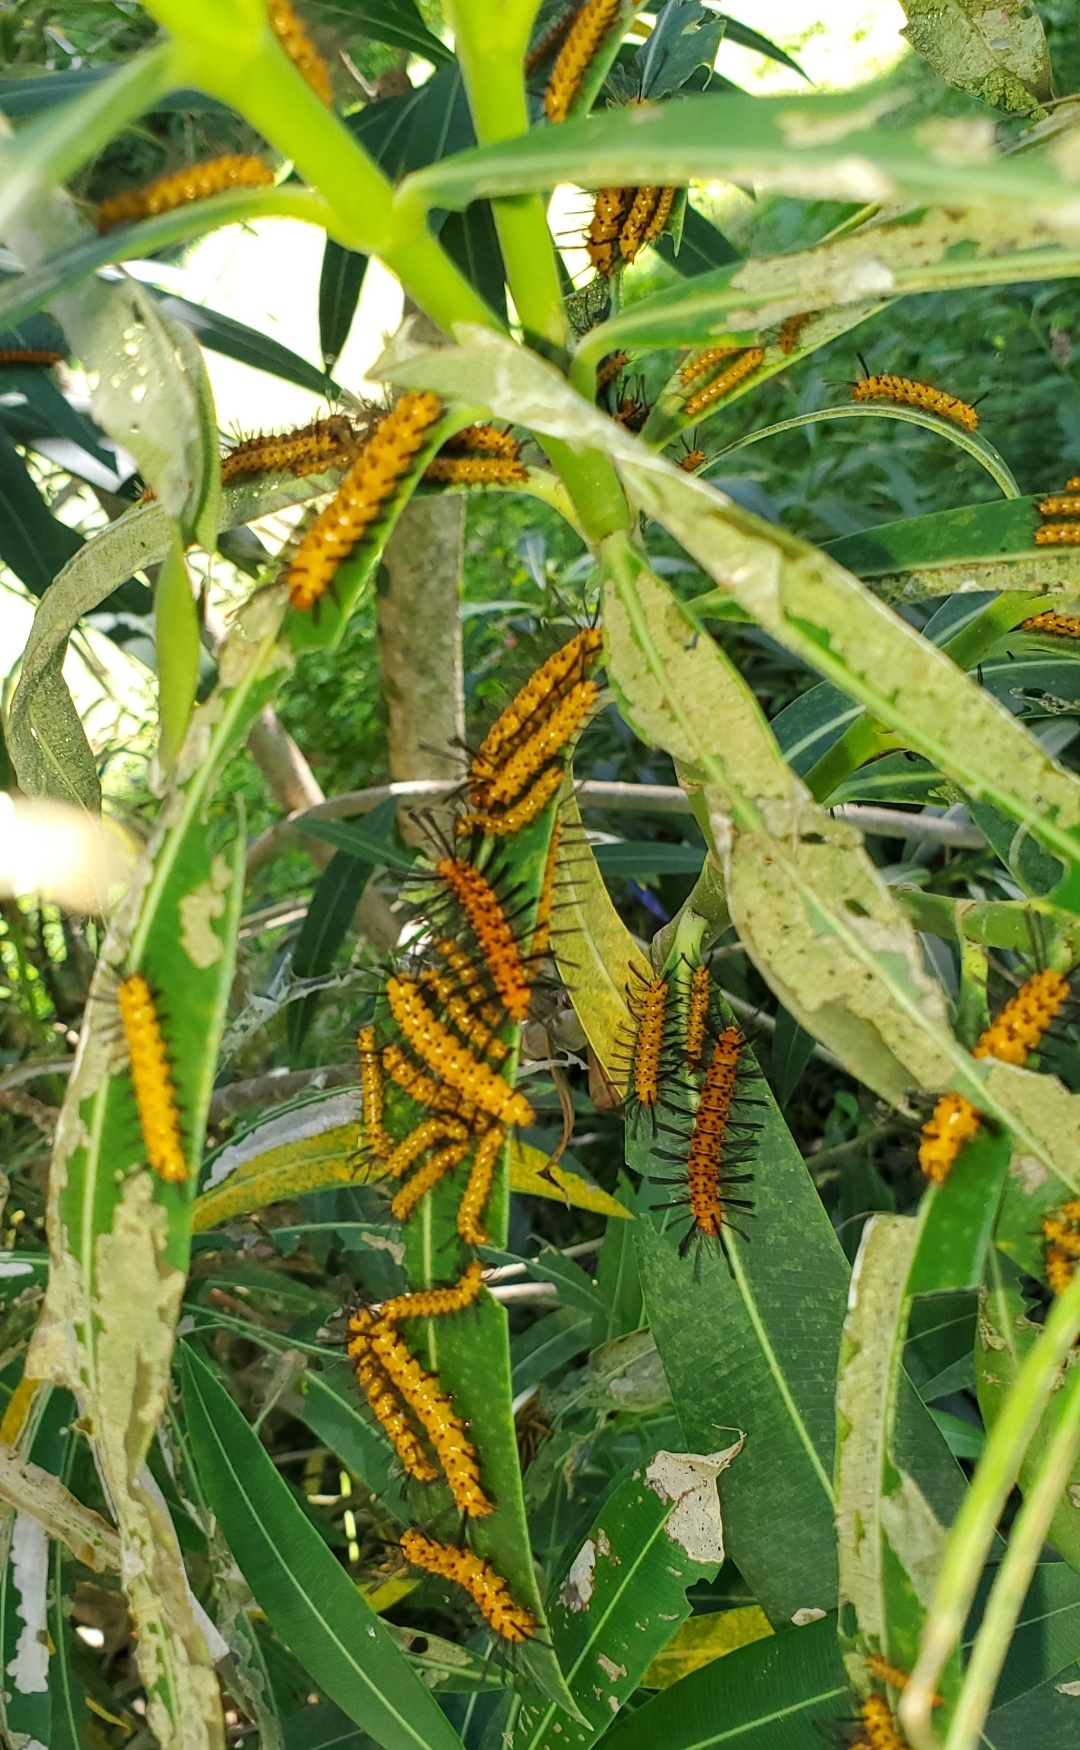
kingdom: Animalia
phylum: Arthropoda
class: Insecta
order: Lepidoptera
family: Erebidae
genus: Syntomeida
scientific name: Syntomeida epilais
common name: Polka-dot wasp moth
